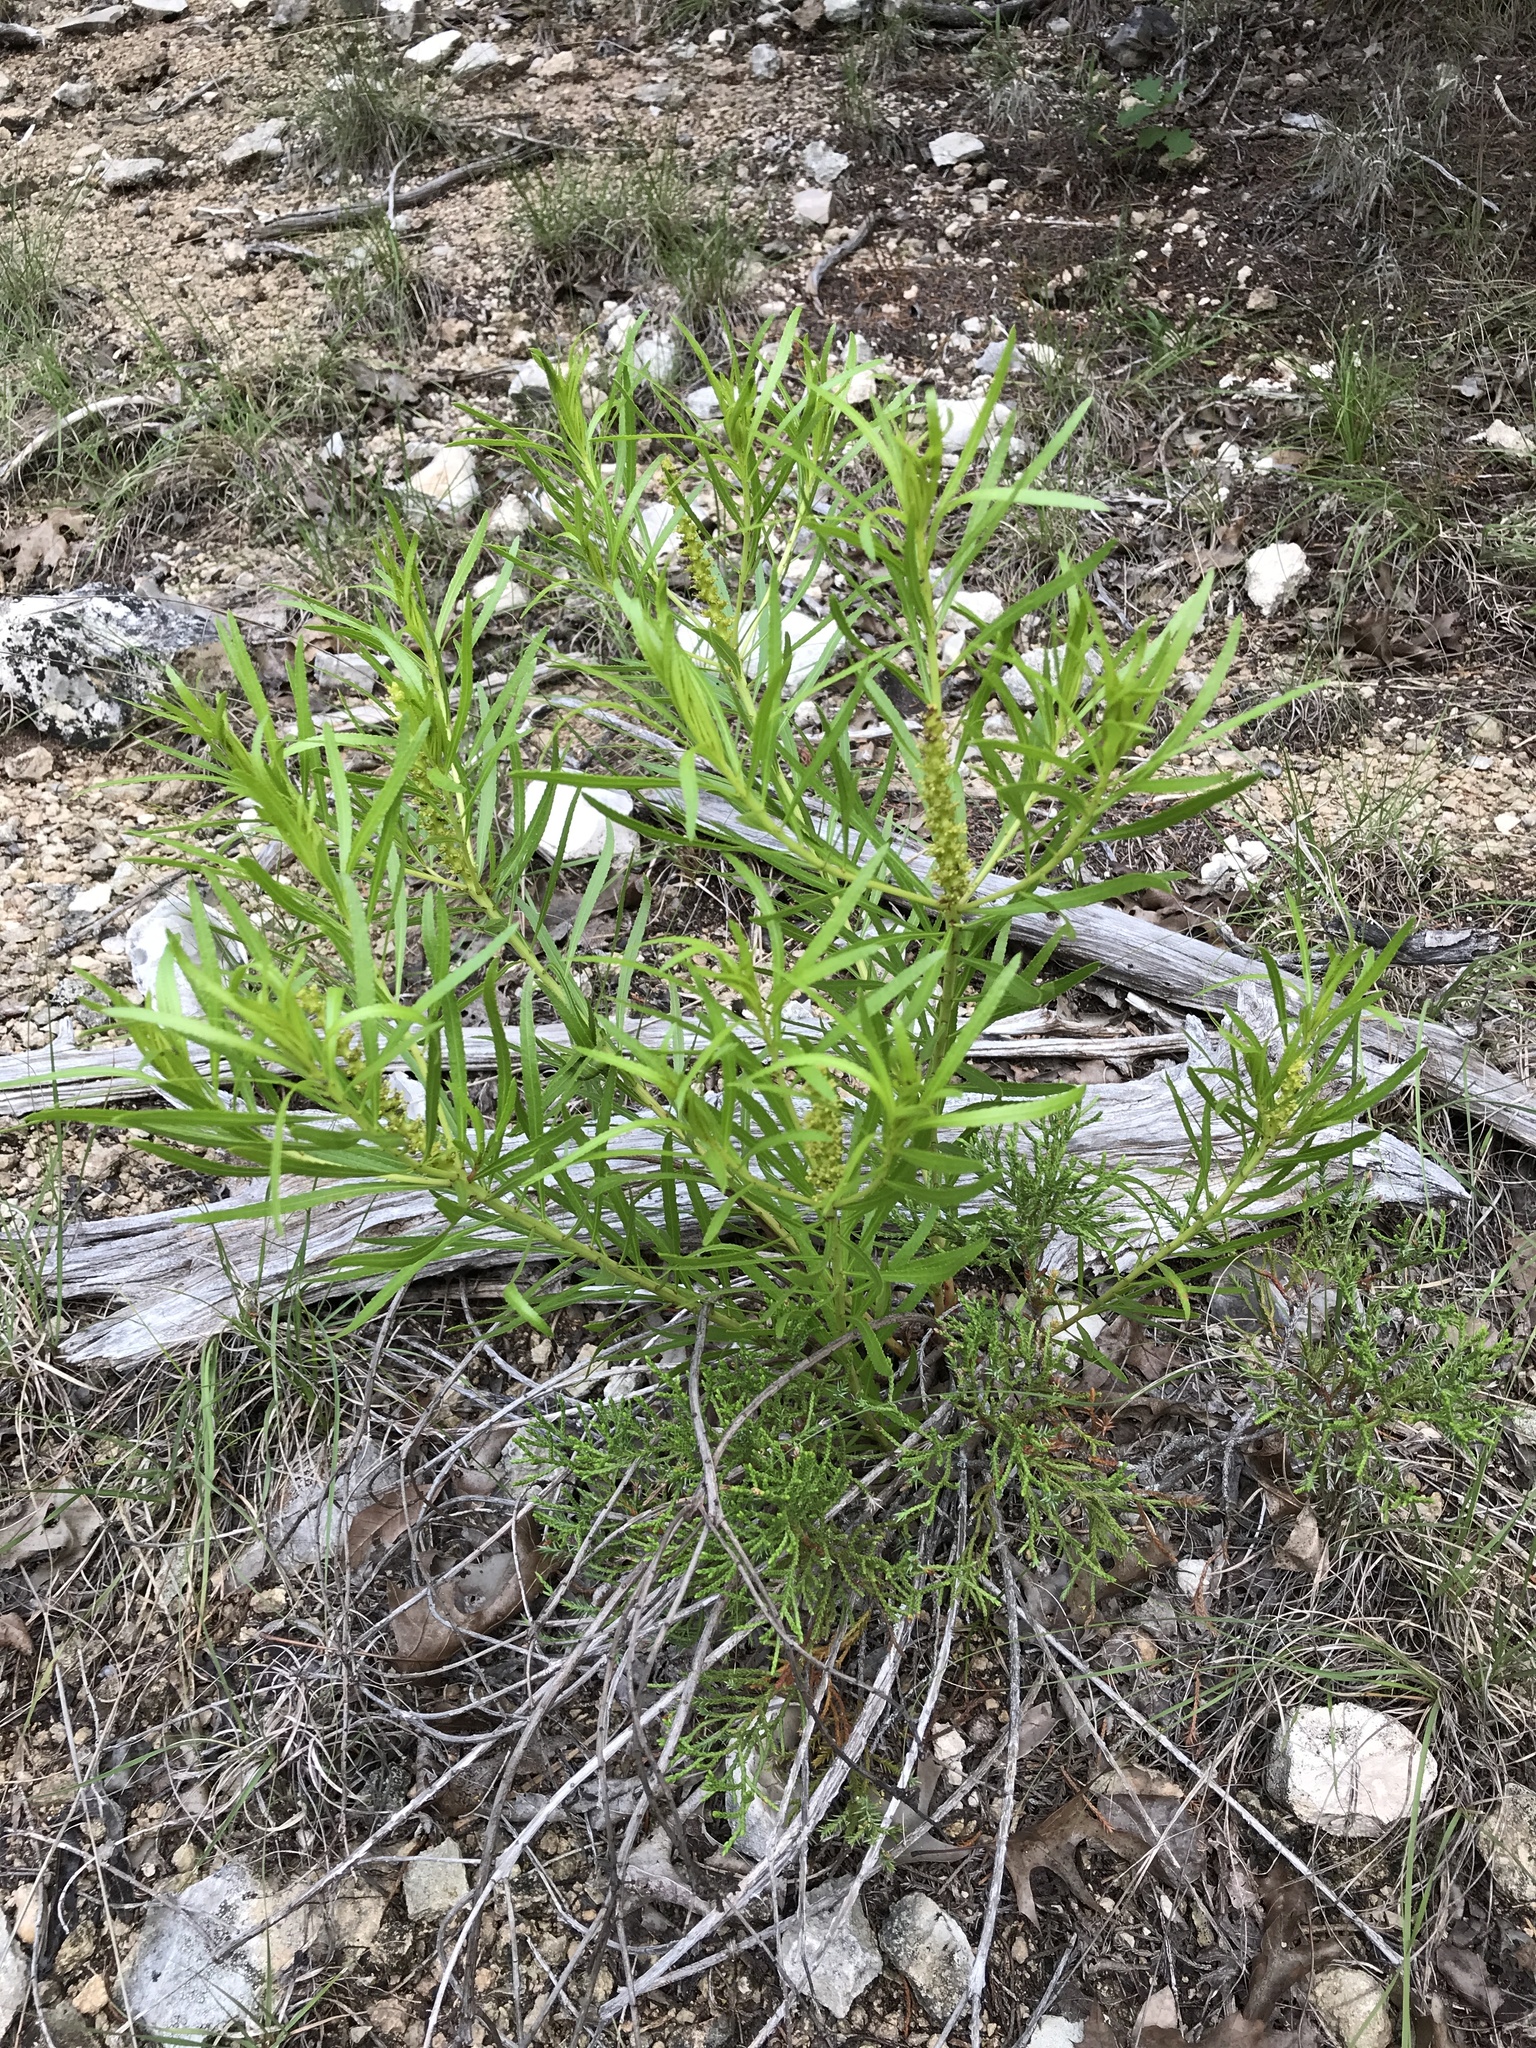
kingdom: Plantae
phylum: Tracheophyta
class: Magnoliopsida
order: Malpighiales
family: Euphorbiaceae
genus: Stillingia
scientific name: Stillingia texana
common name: Texas stillingia
